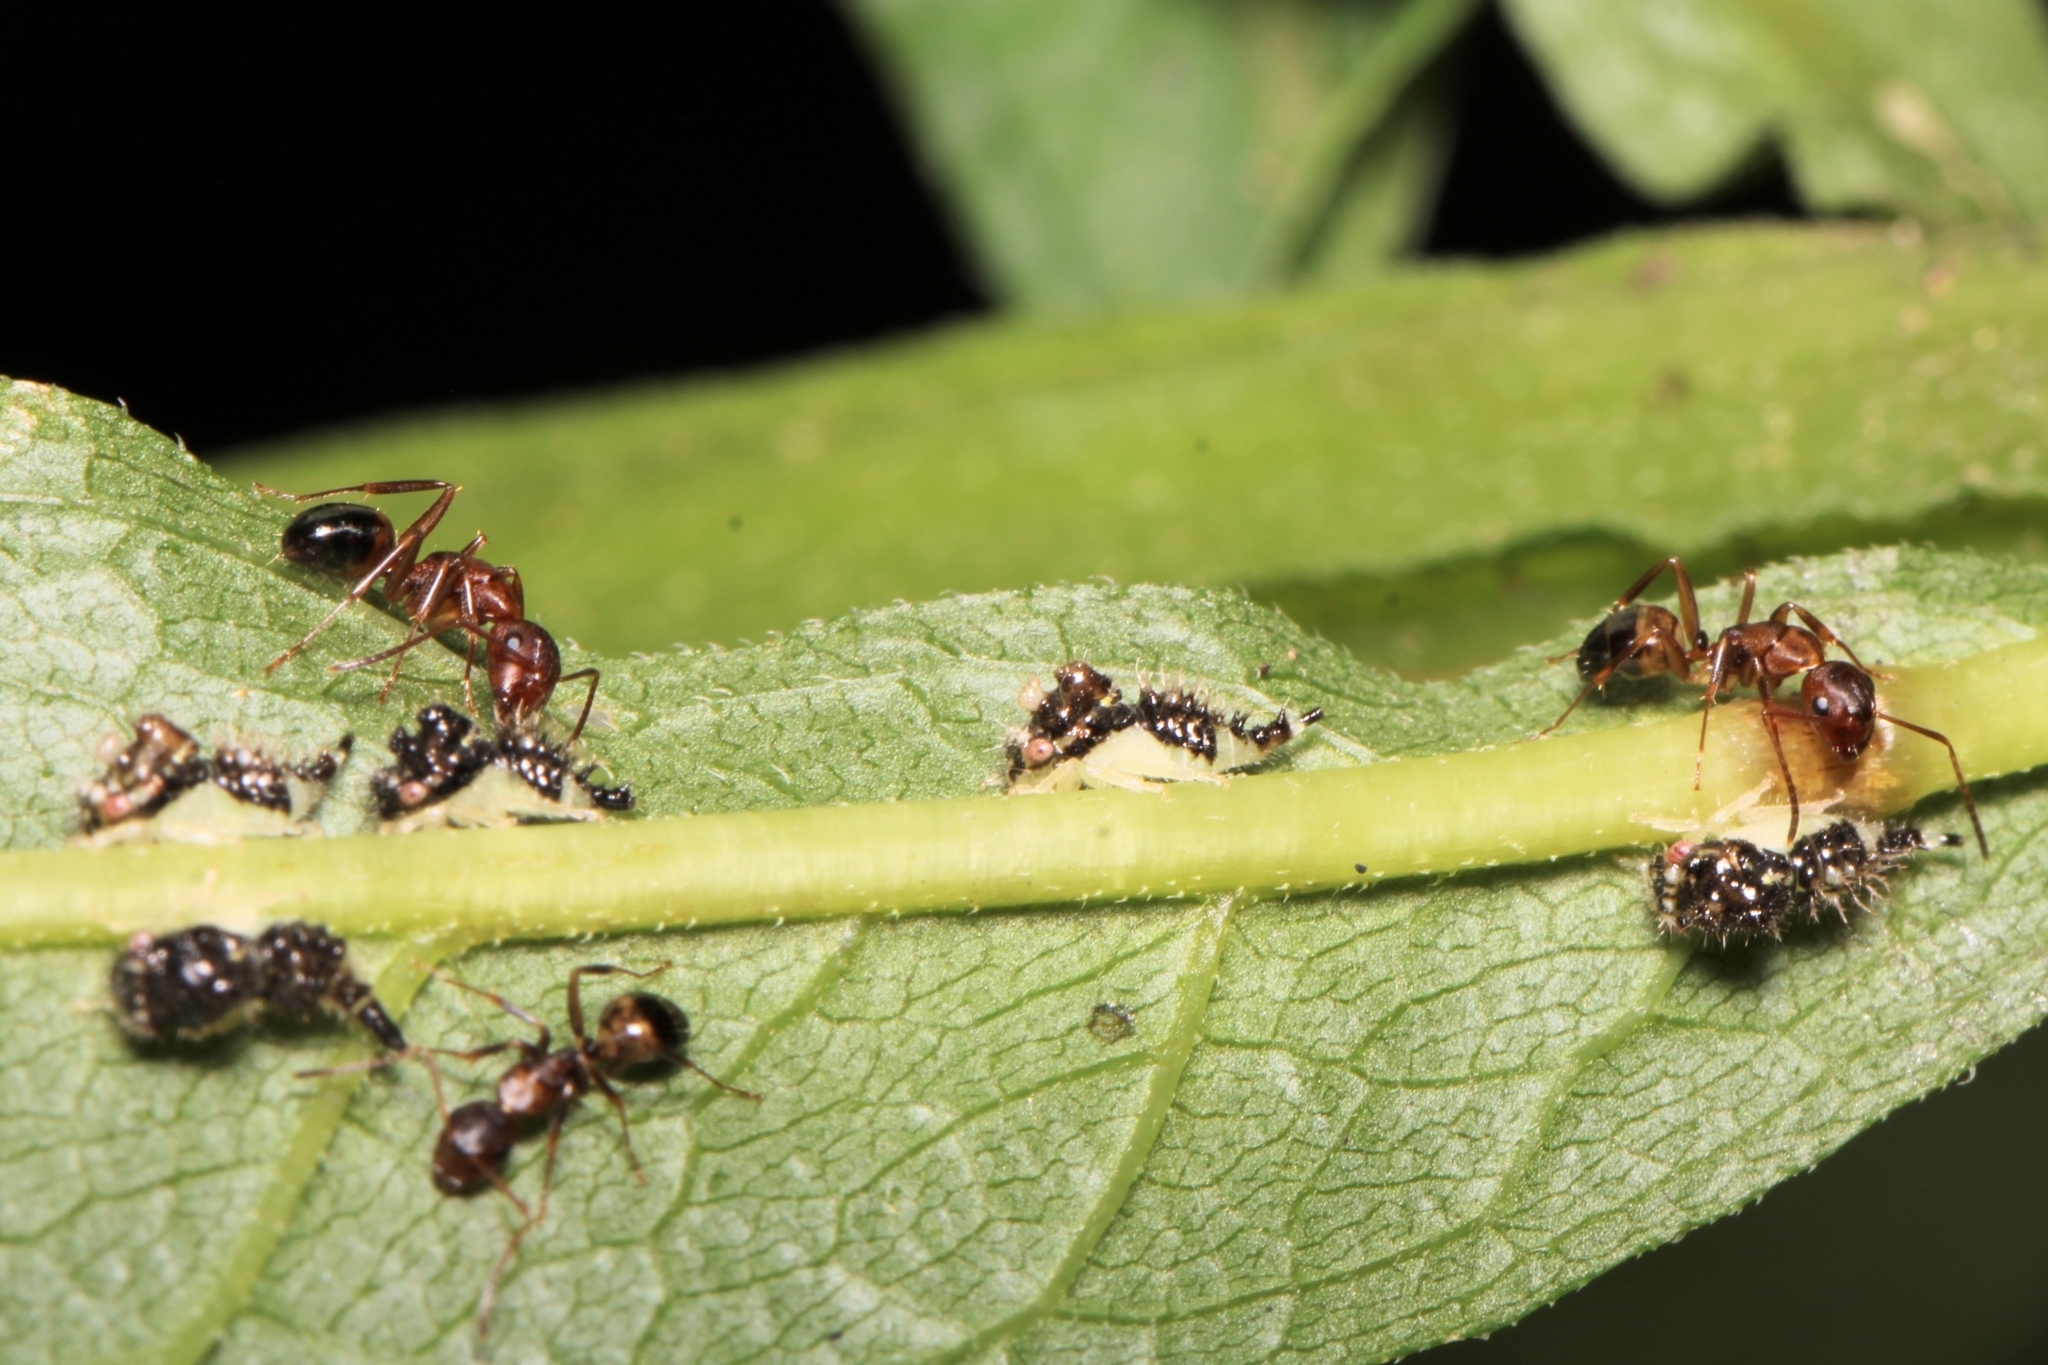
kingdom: Animalia
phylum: Arthropoda
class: Insecta
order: Hymenoptera
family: Formicidae
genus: Camponotus
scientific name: Camponotus subbarbatus
